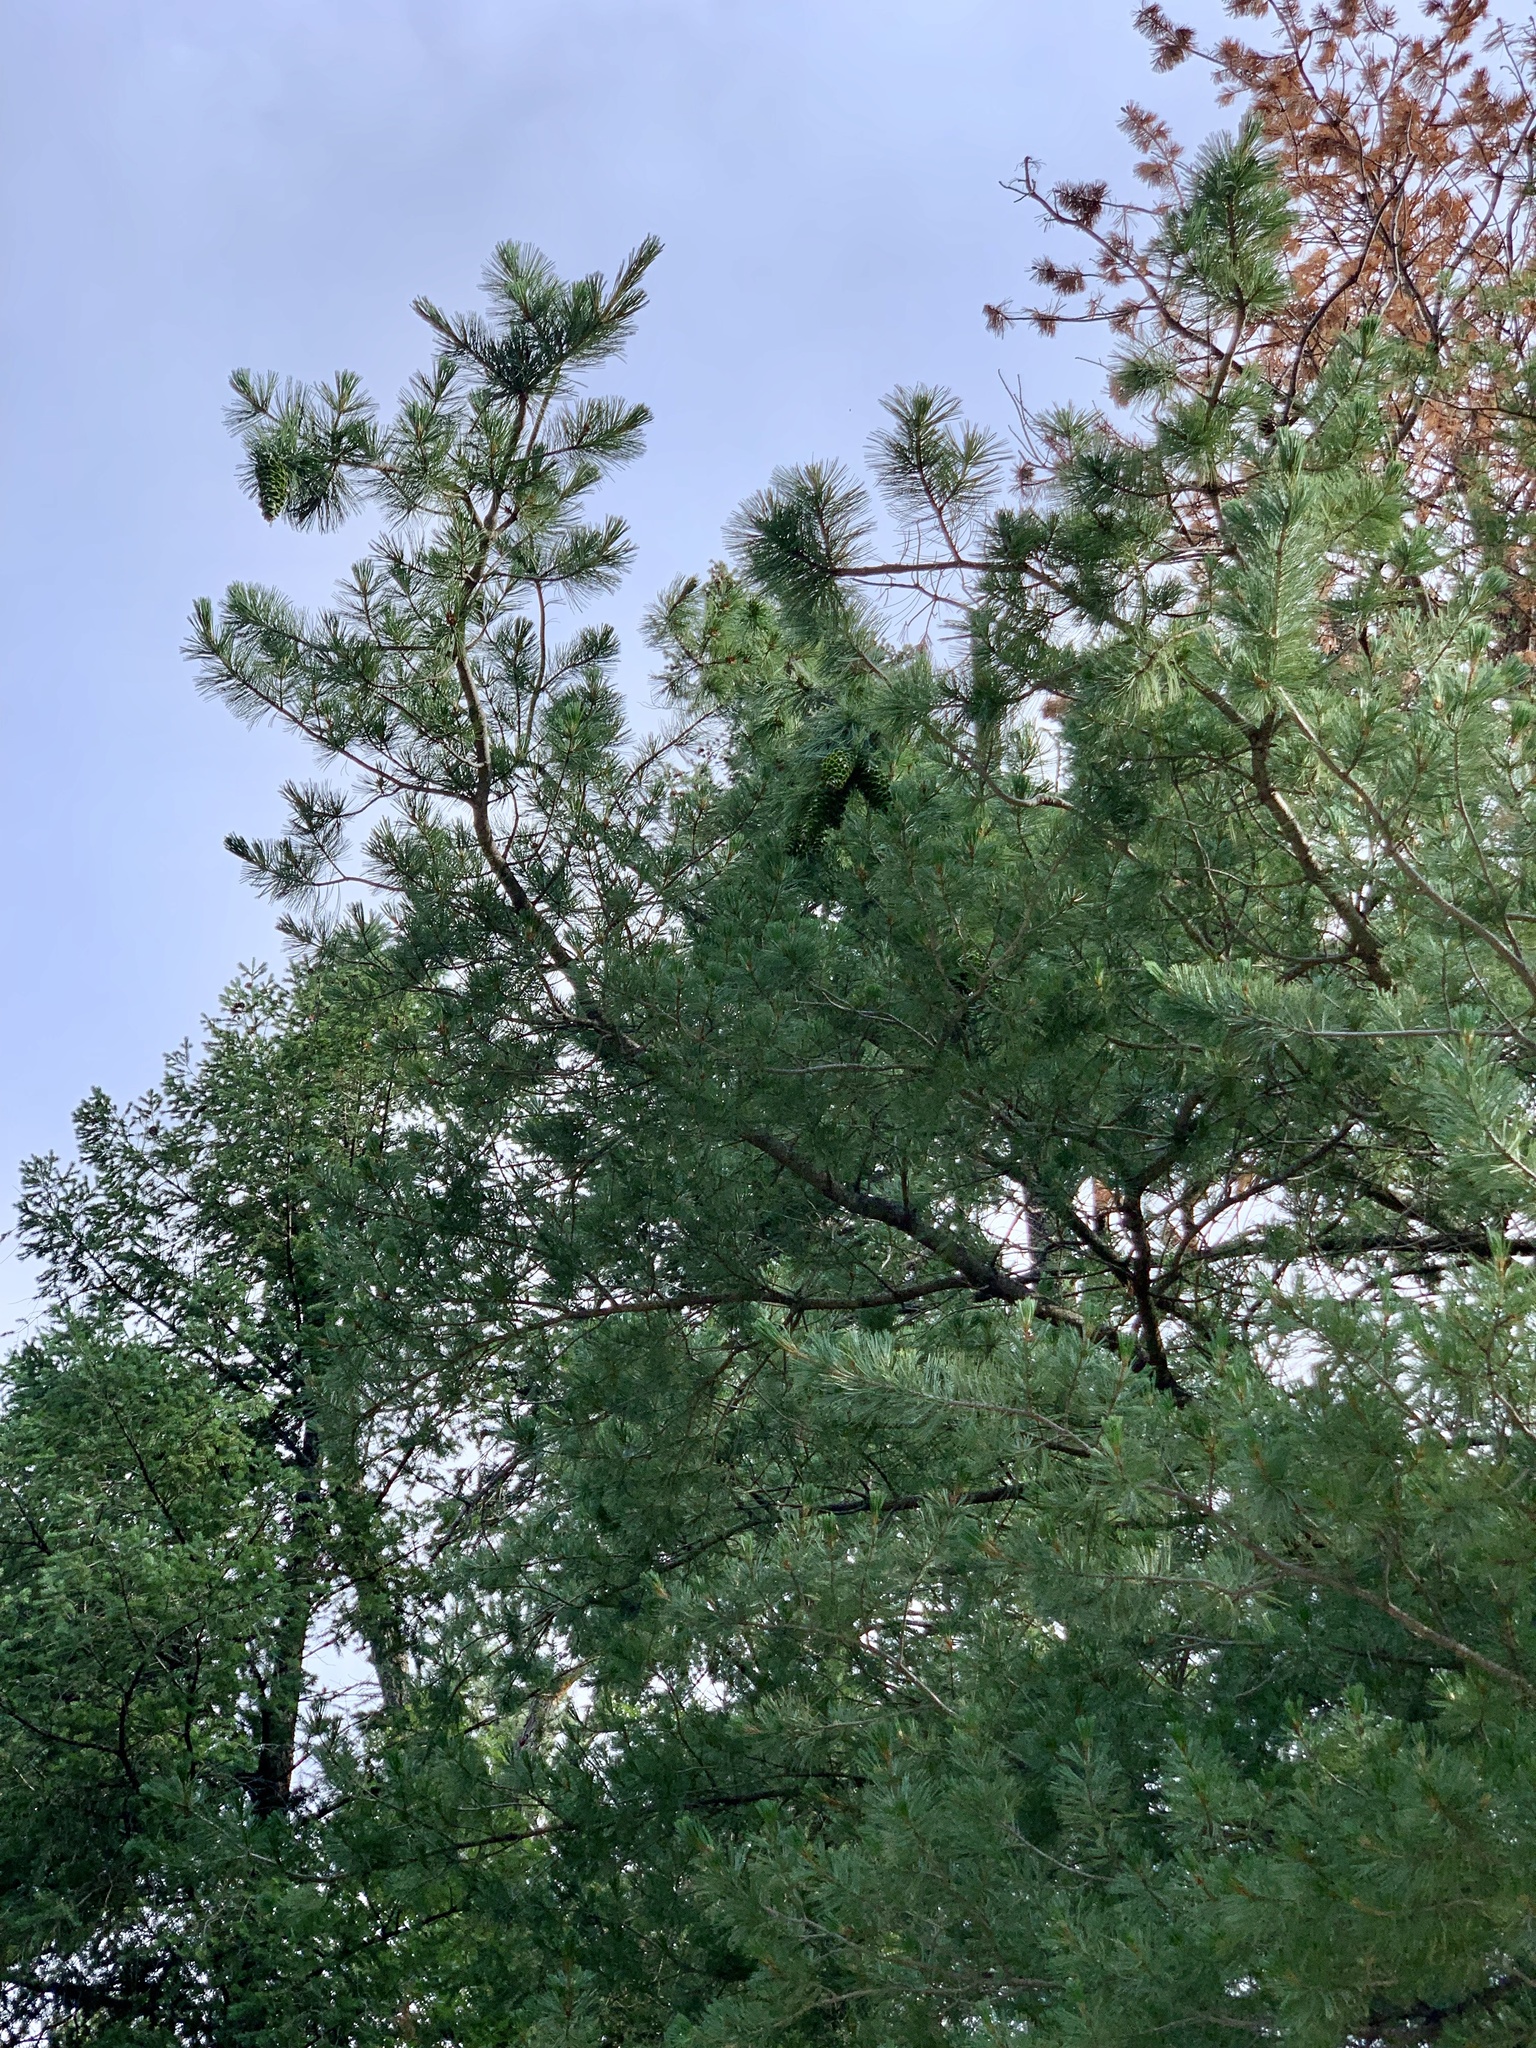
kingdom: Plantae
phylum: Tracheophyta
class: Pinopsida
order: Pinales
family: Pinaceae
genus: Pinus
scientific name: Pinus strobiformis
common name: Southwestern white pine
